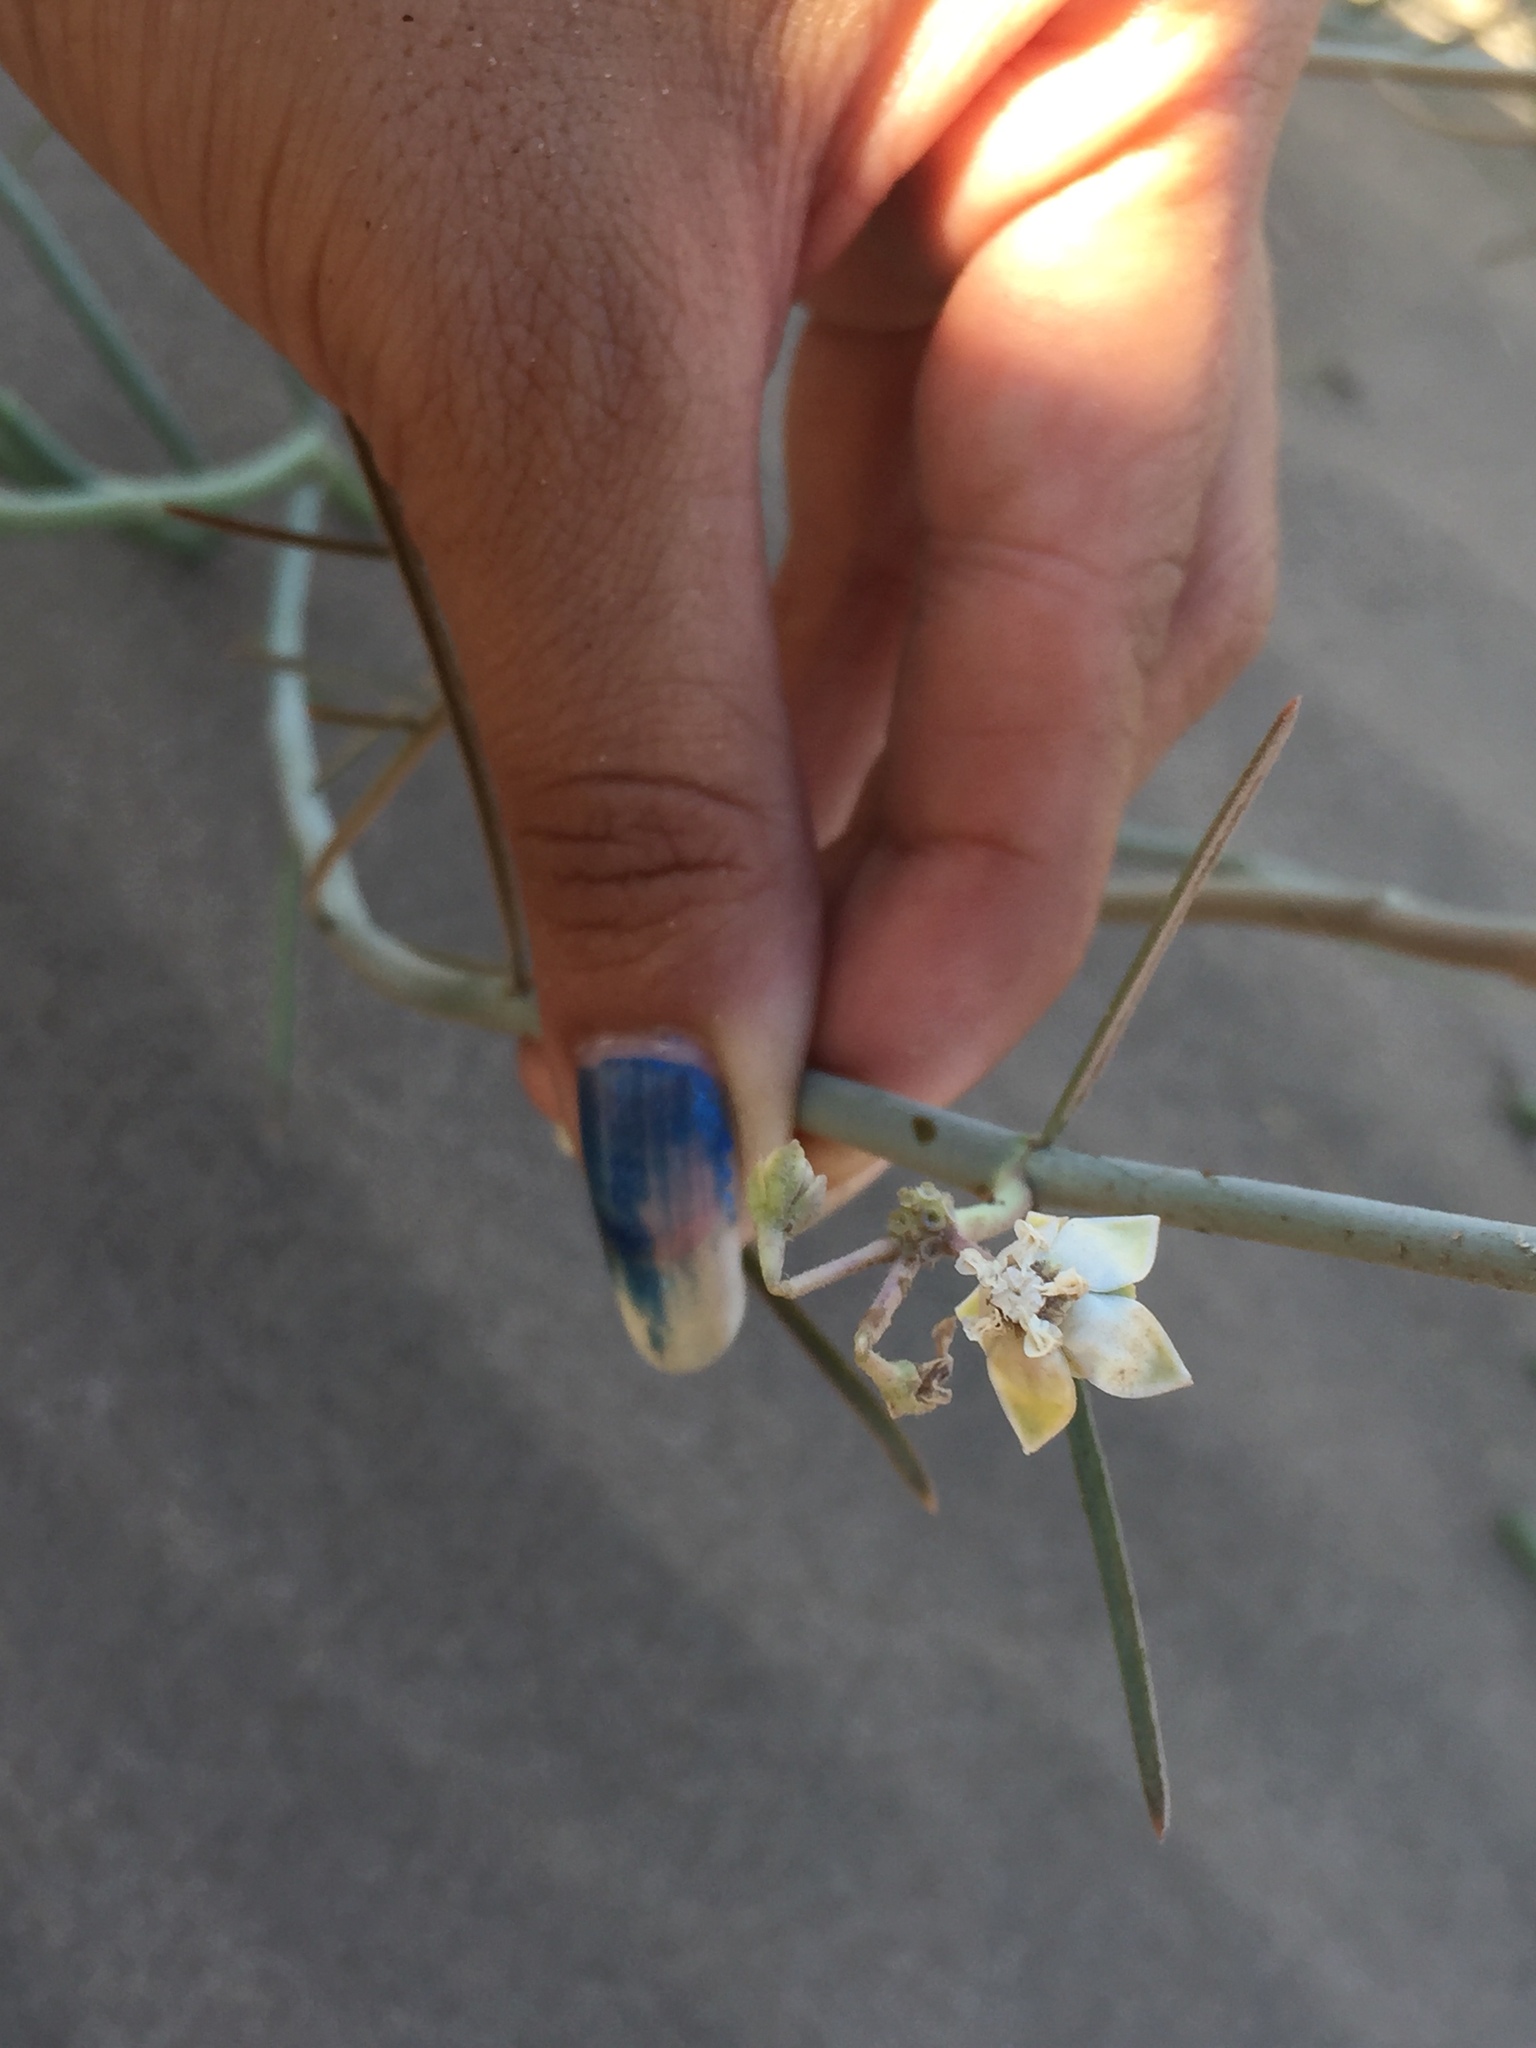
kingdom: Plantae
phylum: Tracheophyta
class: Magnoliopsida
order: Gentianales
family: Apocynaceae
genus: Asclepias
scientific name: Asclepias subaphylla
